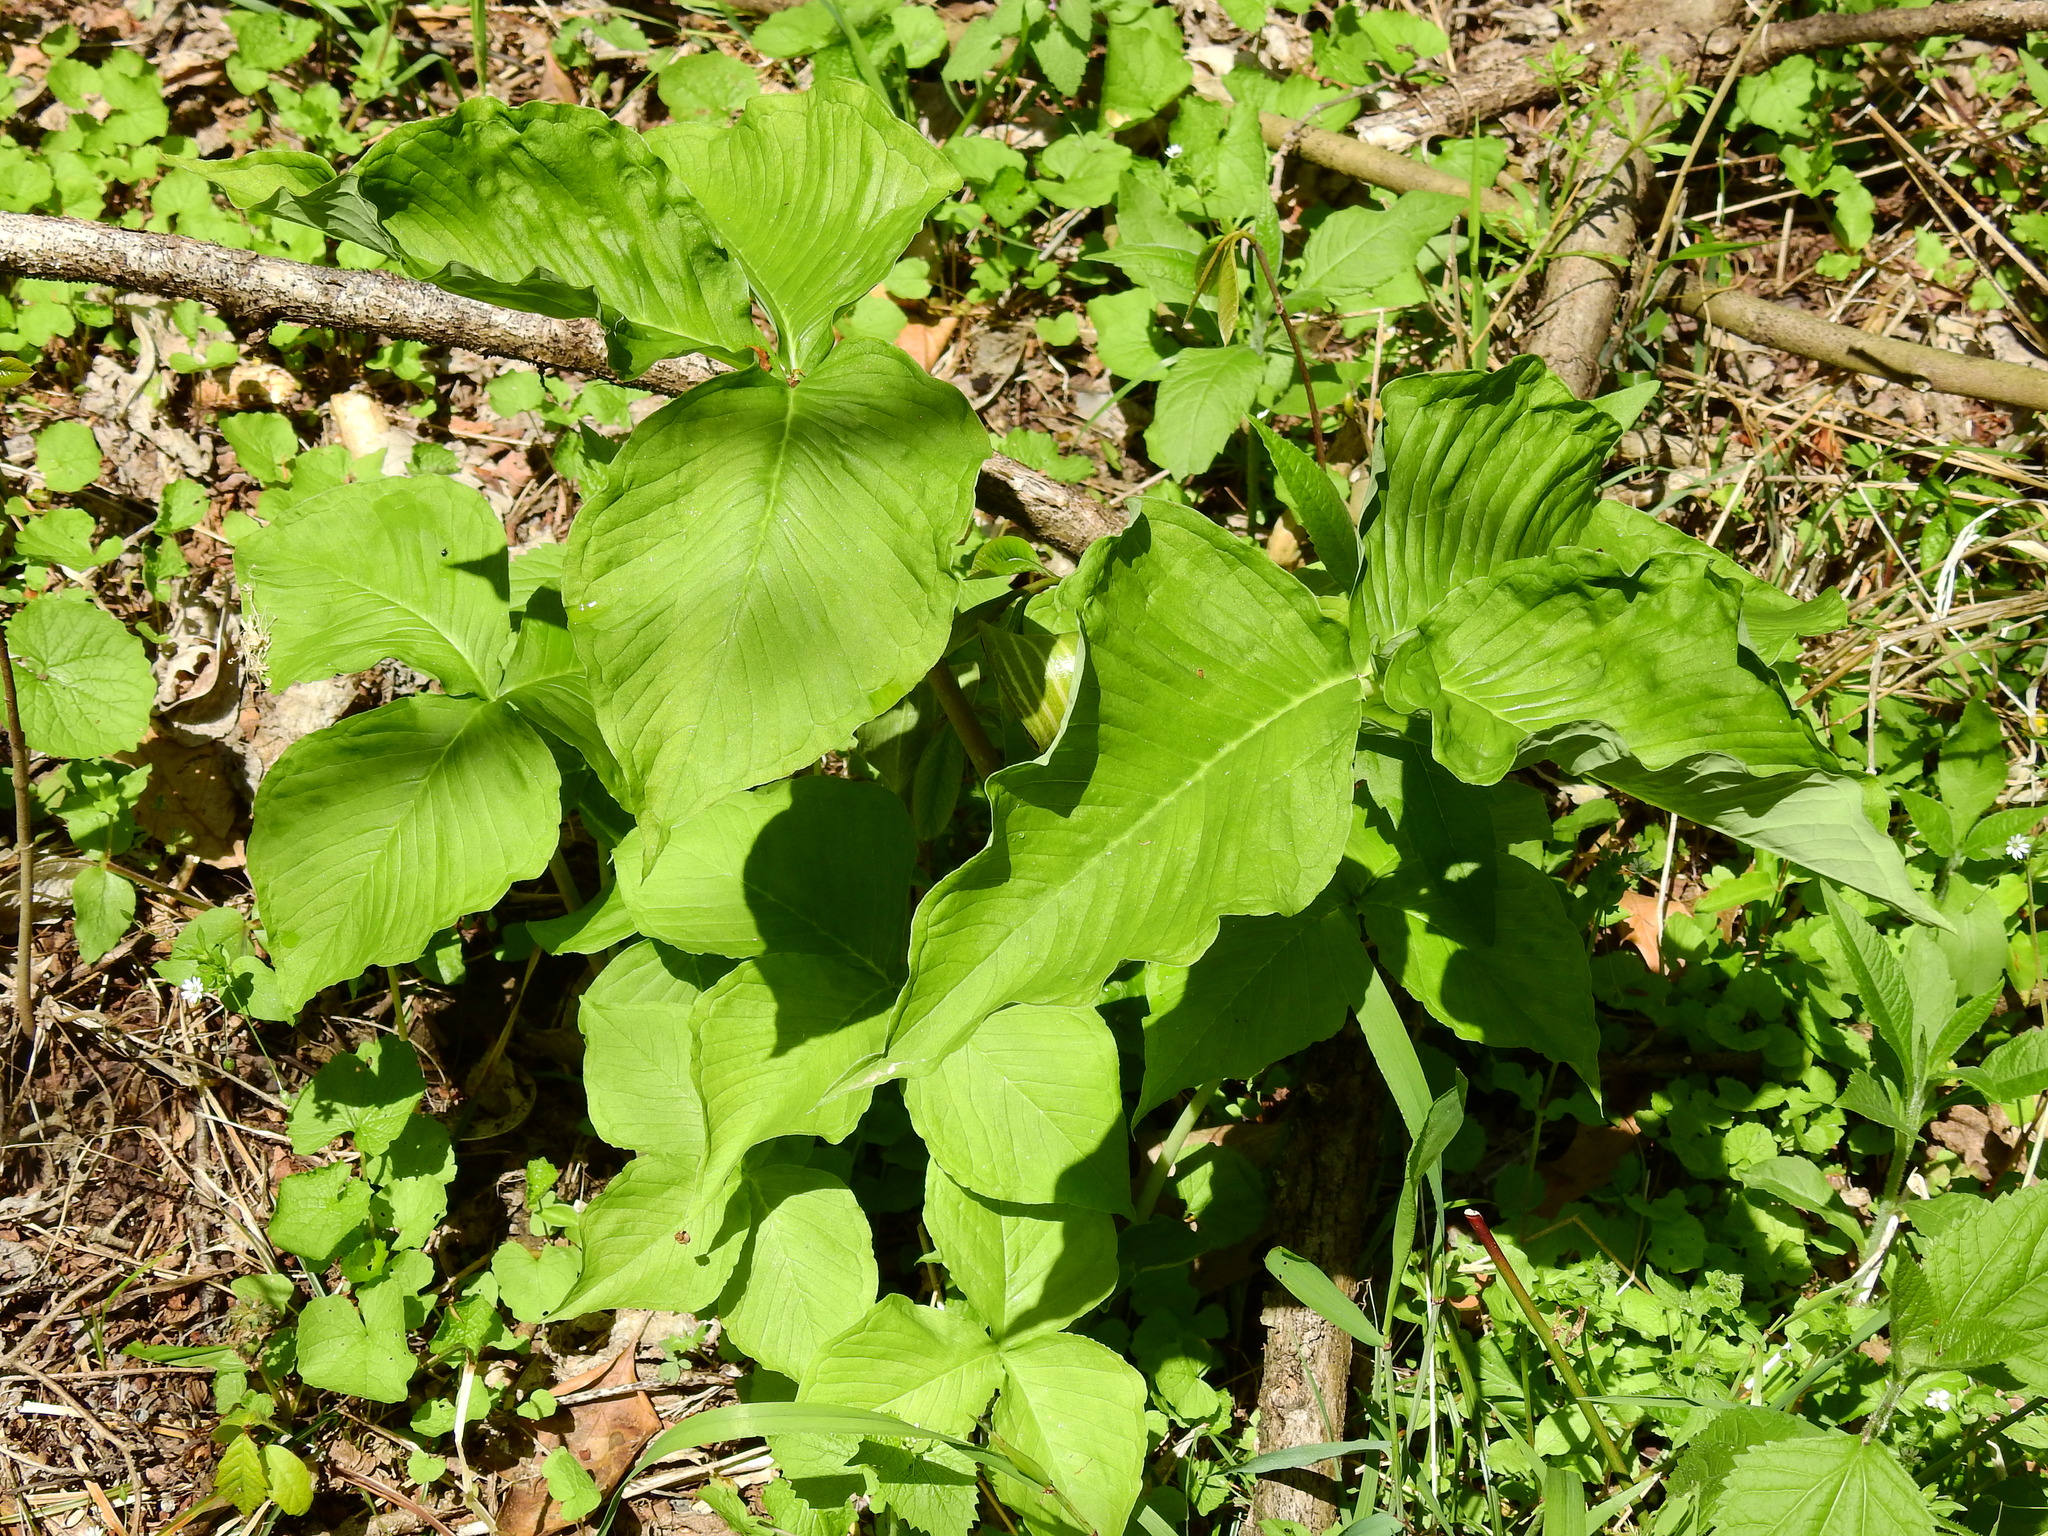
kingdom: Plantae
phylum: Tracheophyta
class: Liliopsida
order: Alismatales
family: Araceae
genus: Arisaema
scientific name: Arisaema triphyllum
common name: Jack-in-the-pulpit
